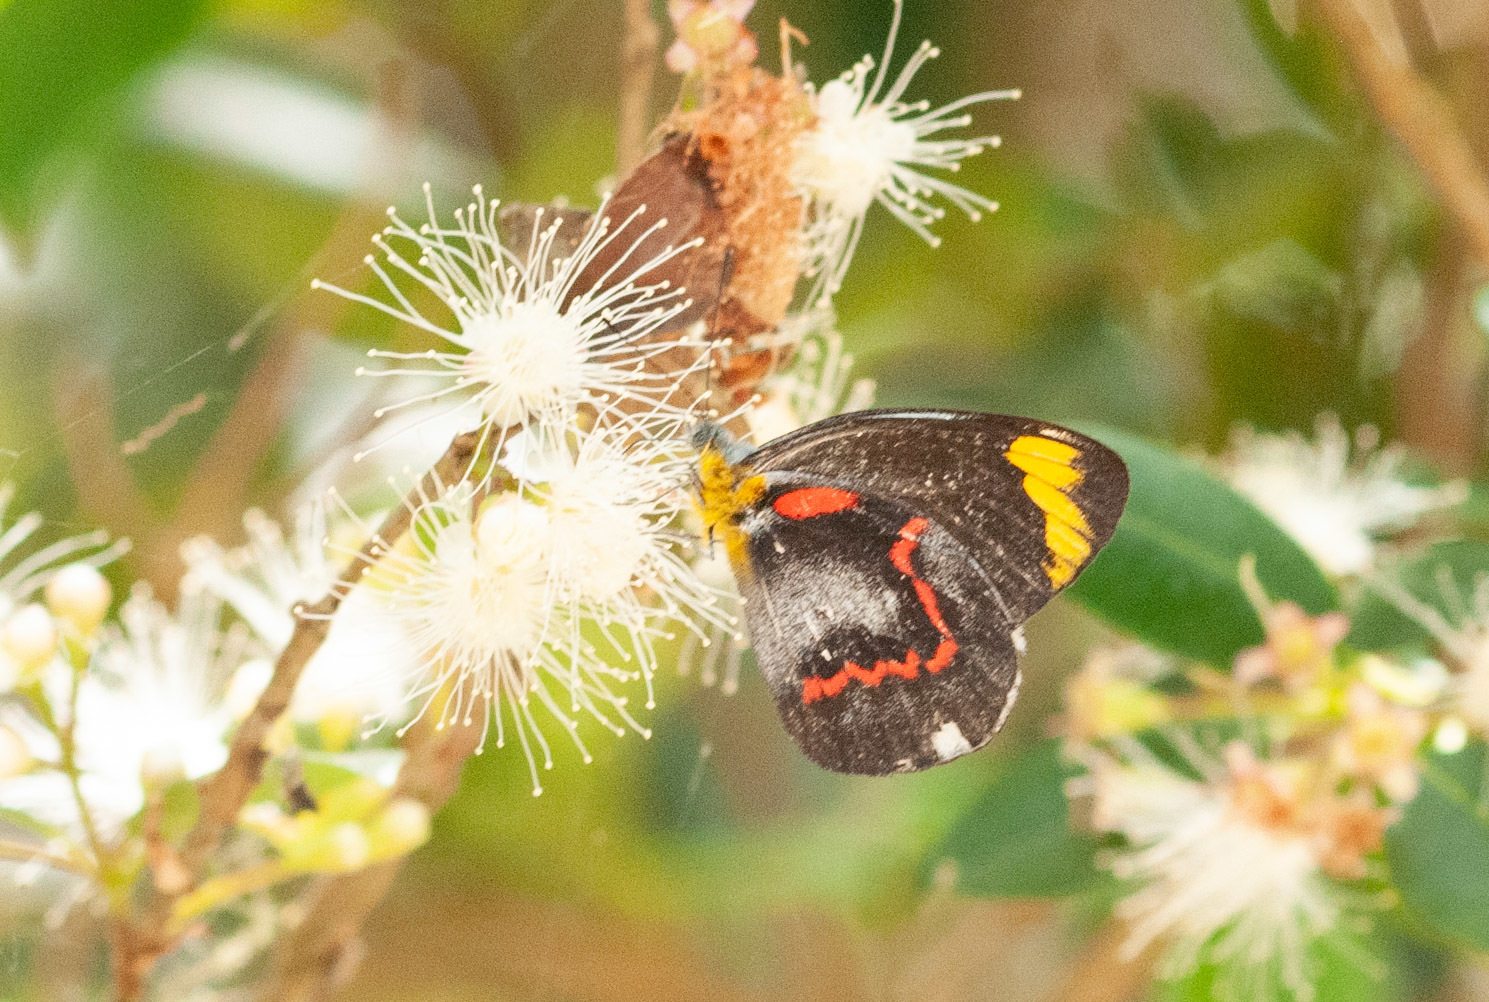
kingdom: Animalia
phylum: Arthropoda
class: Insecta
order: Lepidoptera
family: Pieridae
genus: Delias
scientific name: Delias nigrina
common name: Black jezebel
